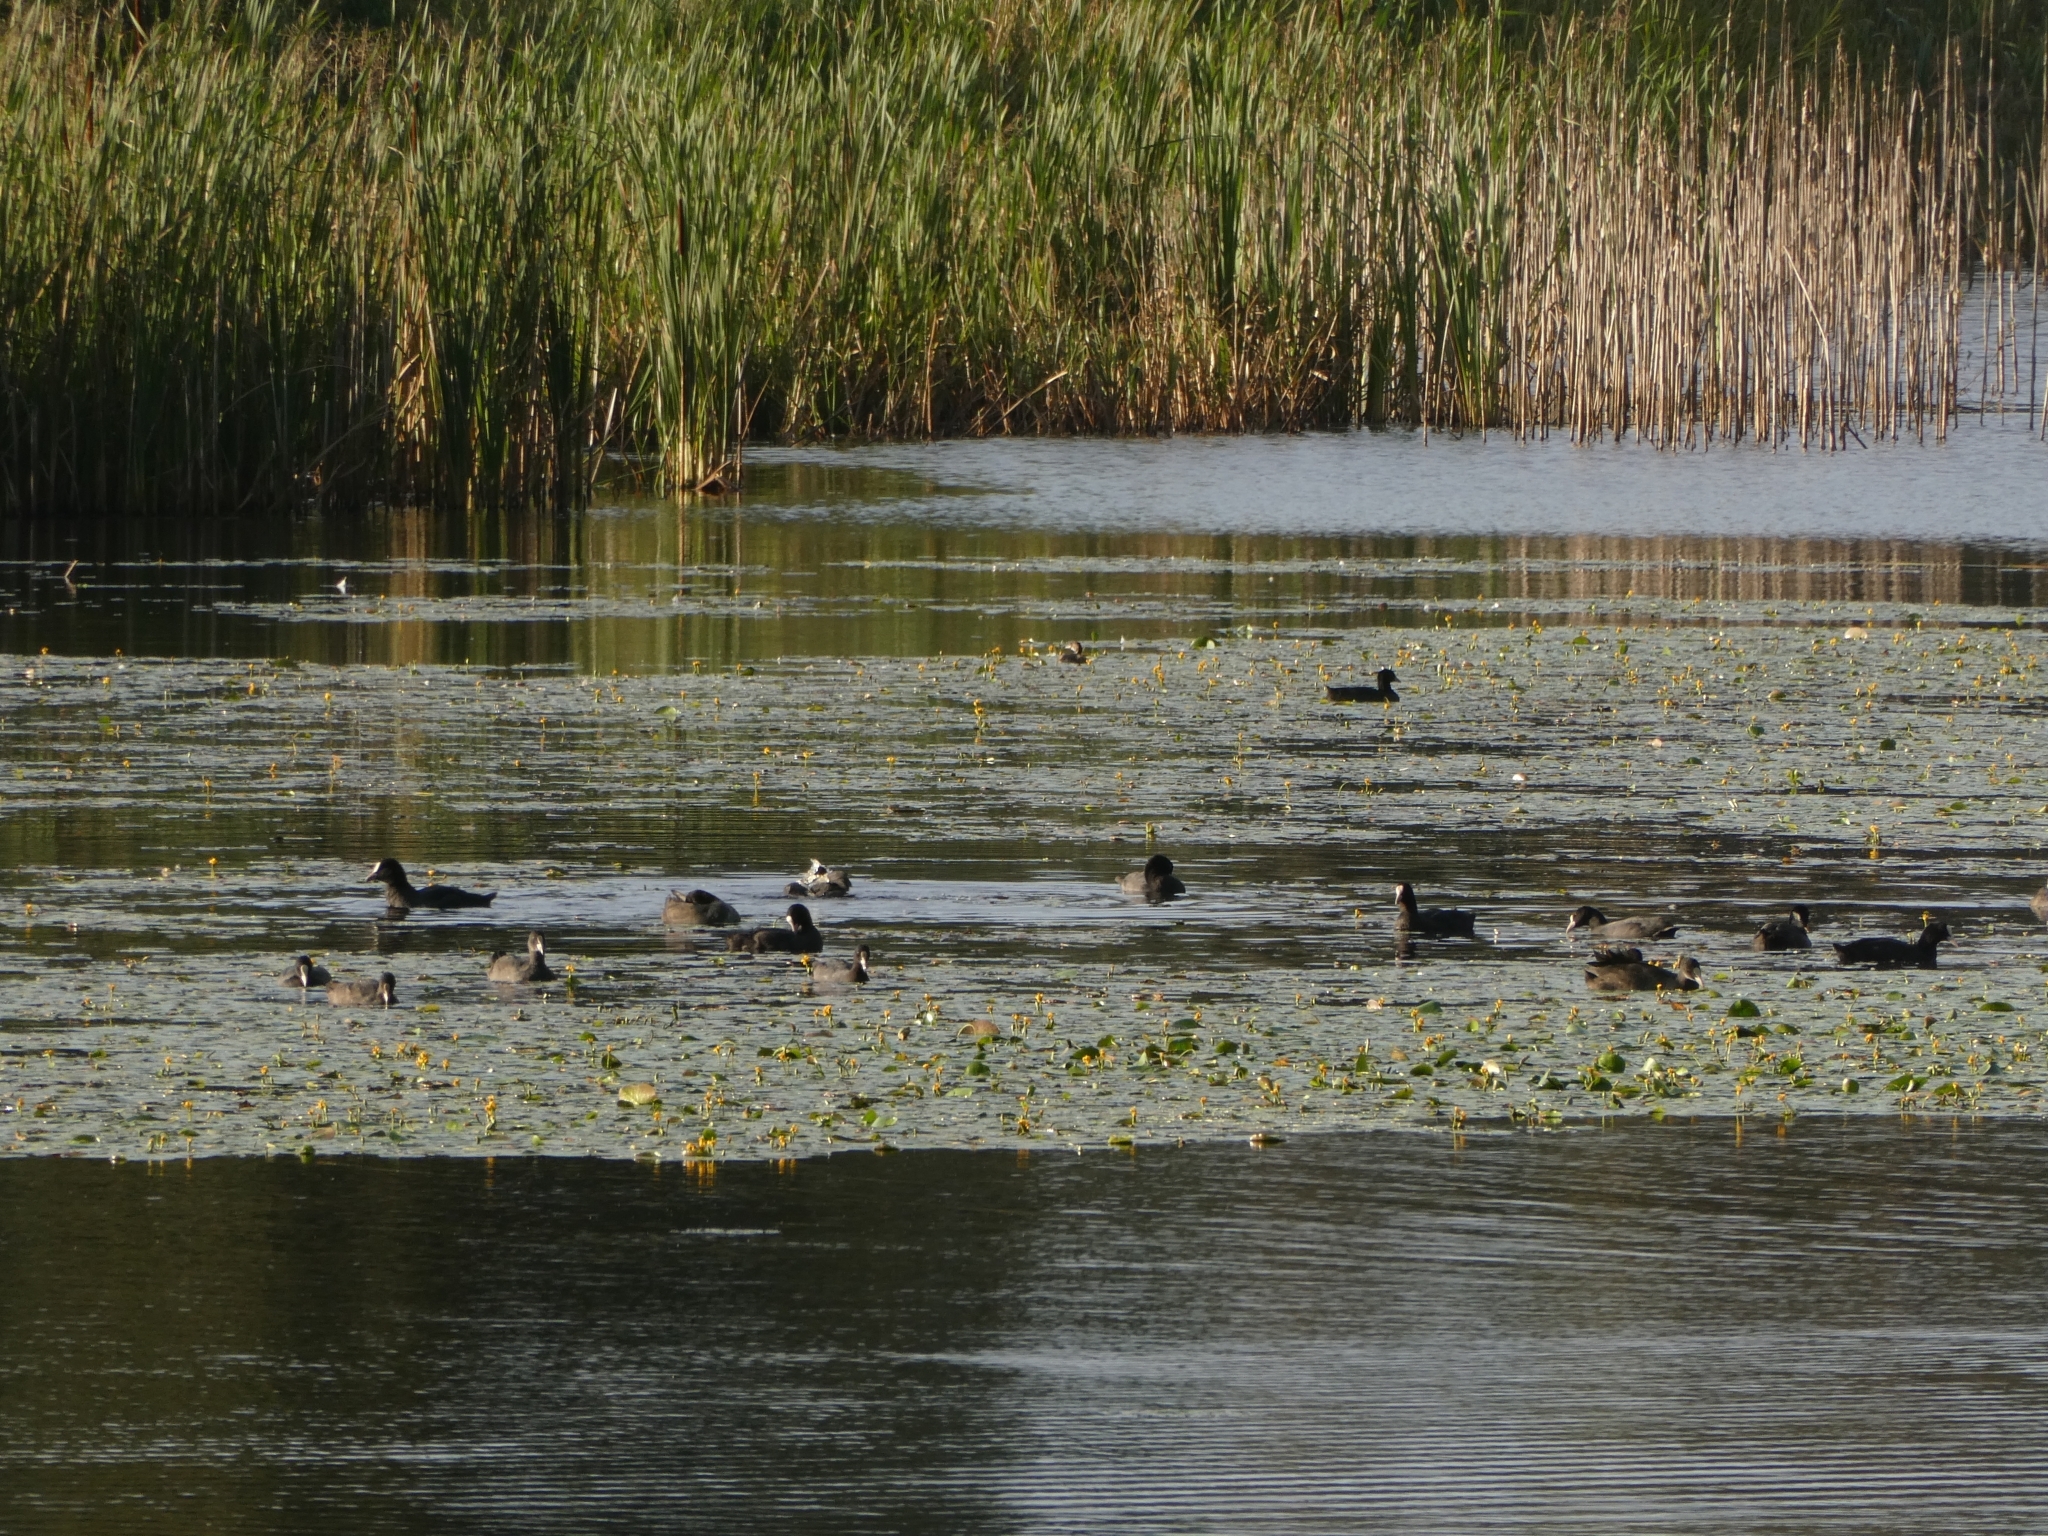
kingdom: Animalia
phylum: Chordata
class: Aves
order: Gruiformes
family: Rallidae
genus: Fulica
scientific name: Fulica atra
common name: Eurasian coot
